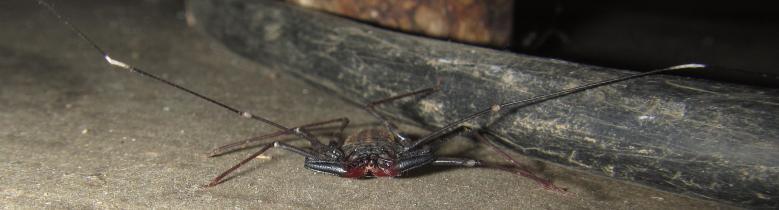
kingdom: Animalia
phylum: Arthropoda
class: Arachnida
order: Amblypygi
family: Phrynichidae
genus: Damon
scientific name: Damon variegatus
